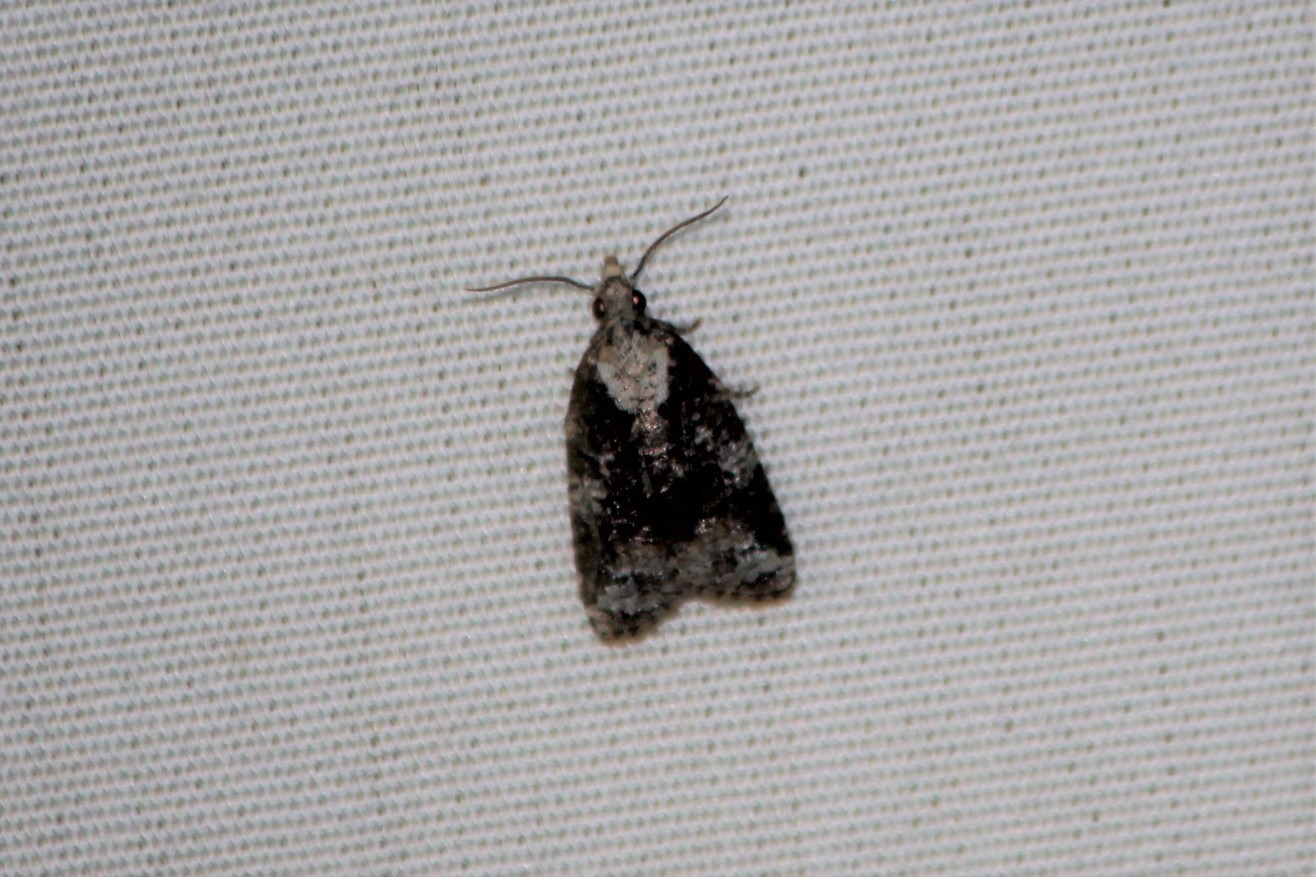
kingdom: Animalia
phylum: Arthropoda
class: Insecta
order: Lepidoptera
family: Tortricidae
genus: Platynota
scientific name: Platynota exasperatana
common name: Exasperating platynota moth
